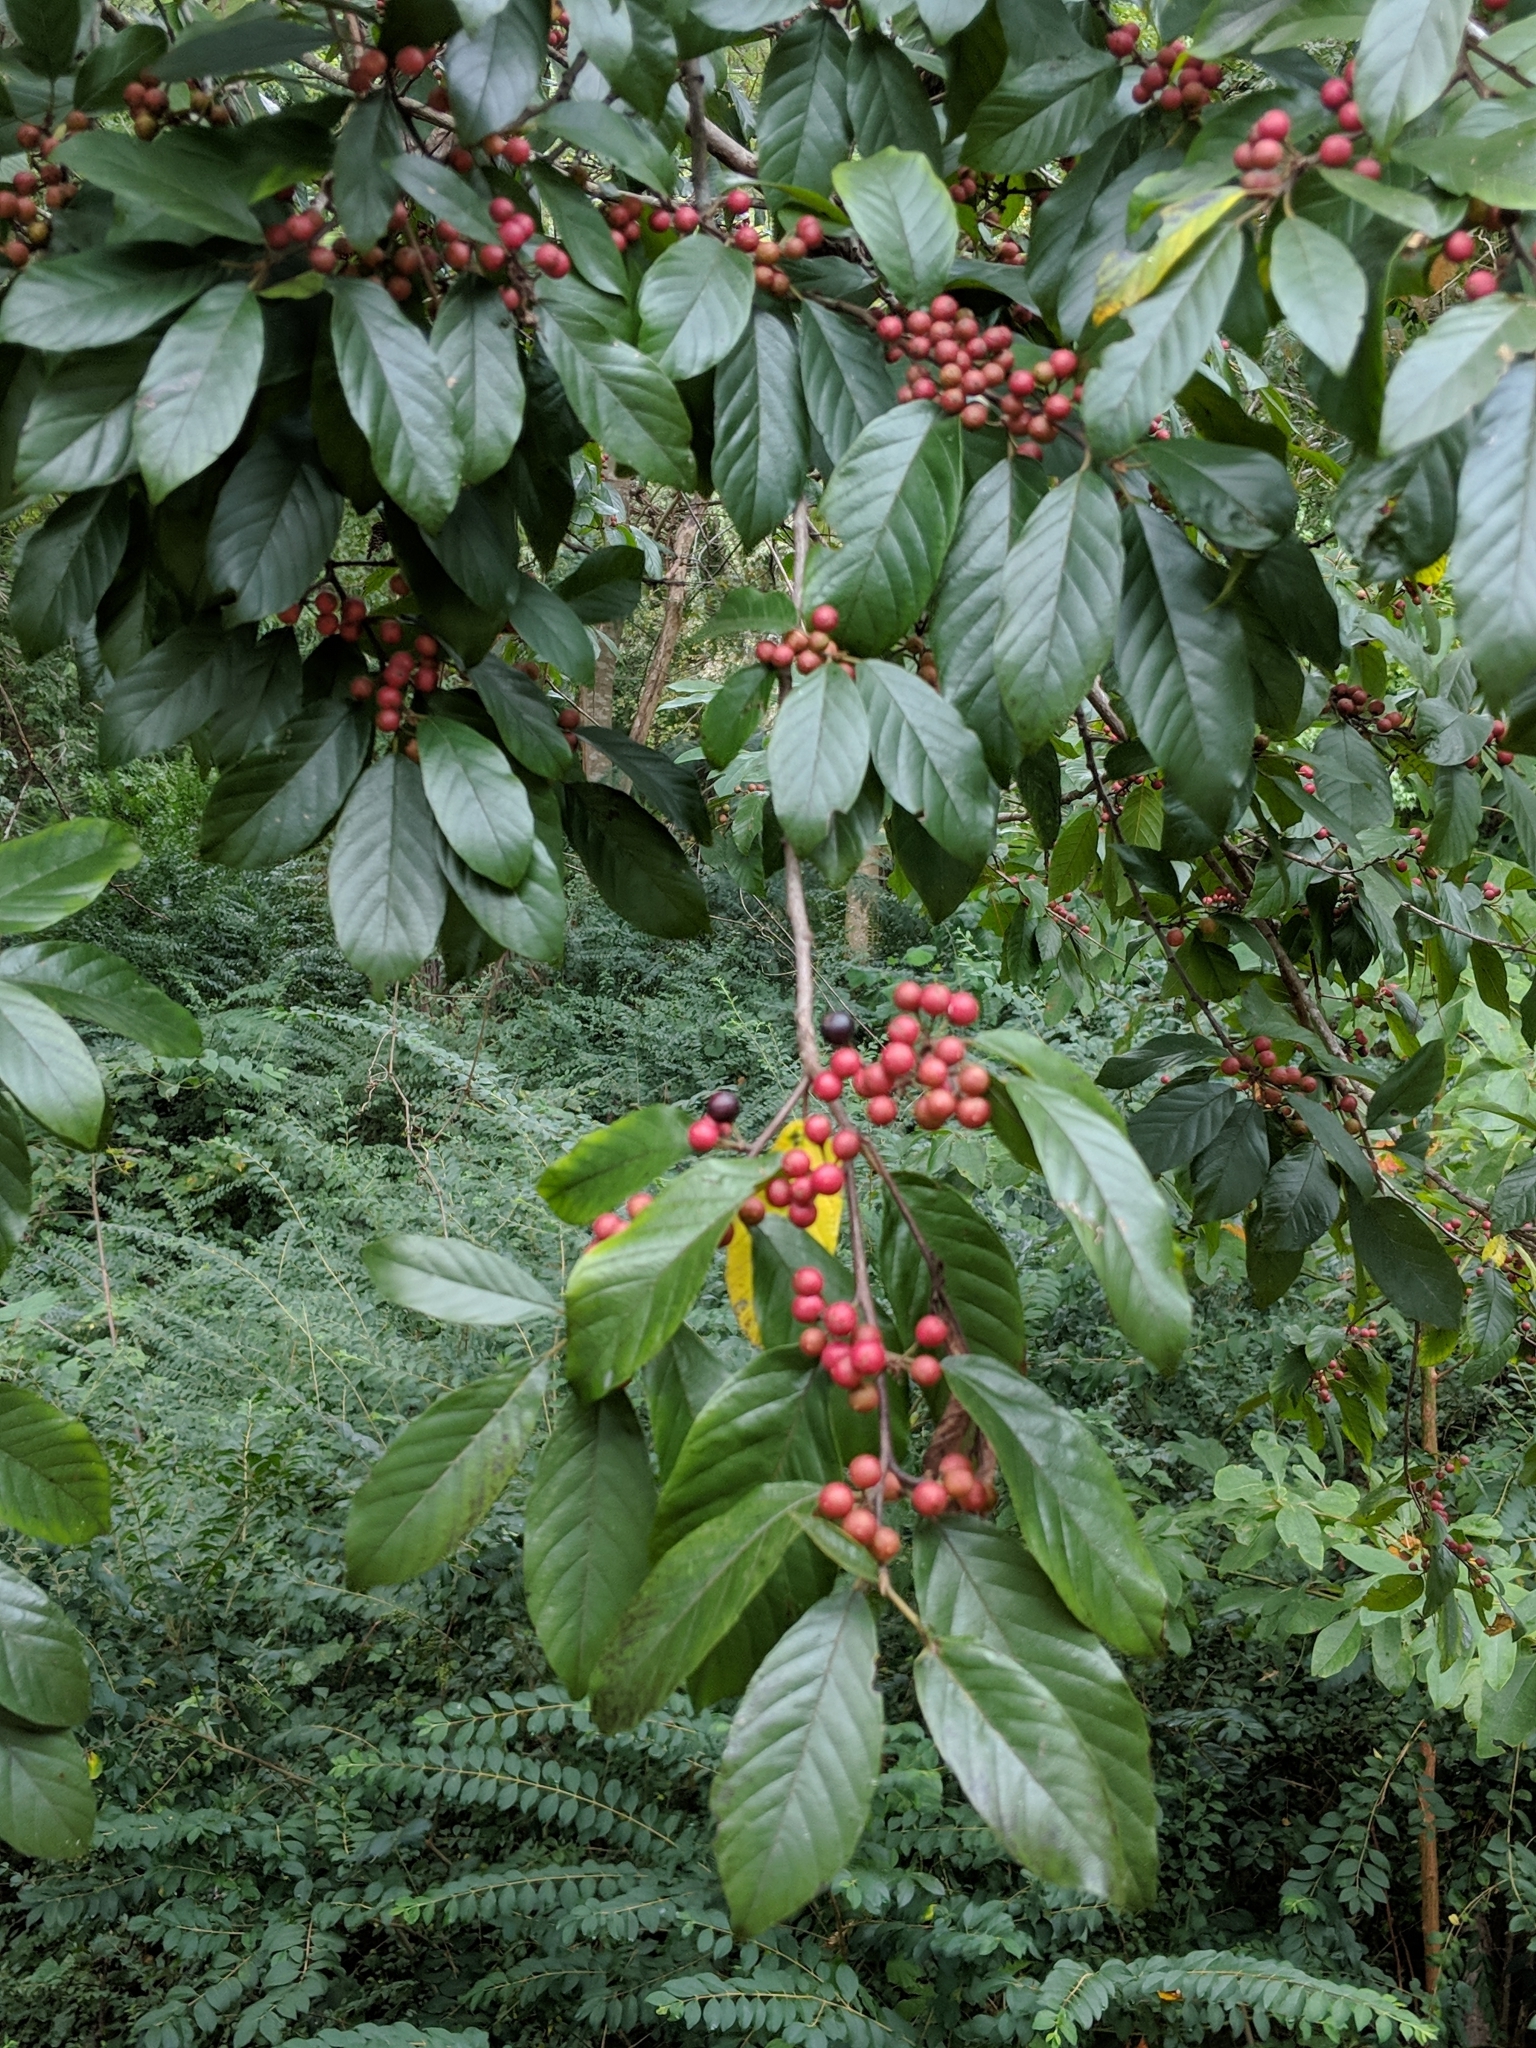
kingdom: Plantae
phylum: Tracheophyta
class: Magnoliopsida
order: Rosales
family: Rhamnaceae
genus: Frangula
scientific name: Frangula caroliniana
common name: Carolina buckthorn
